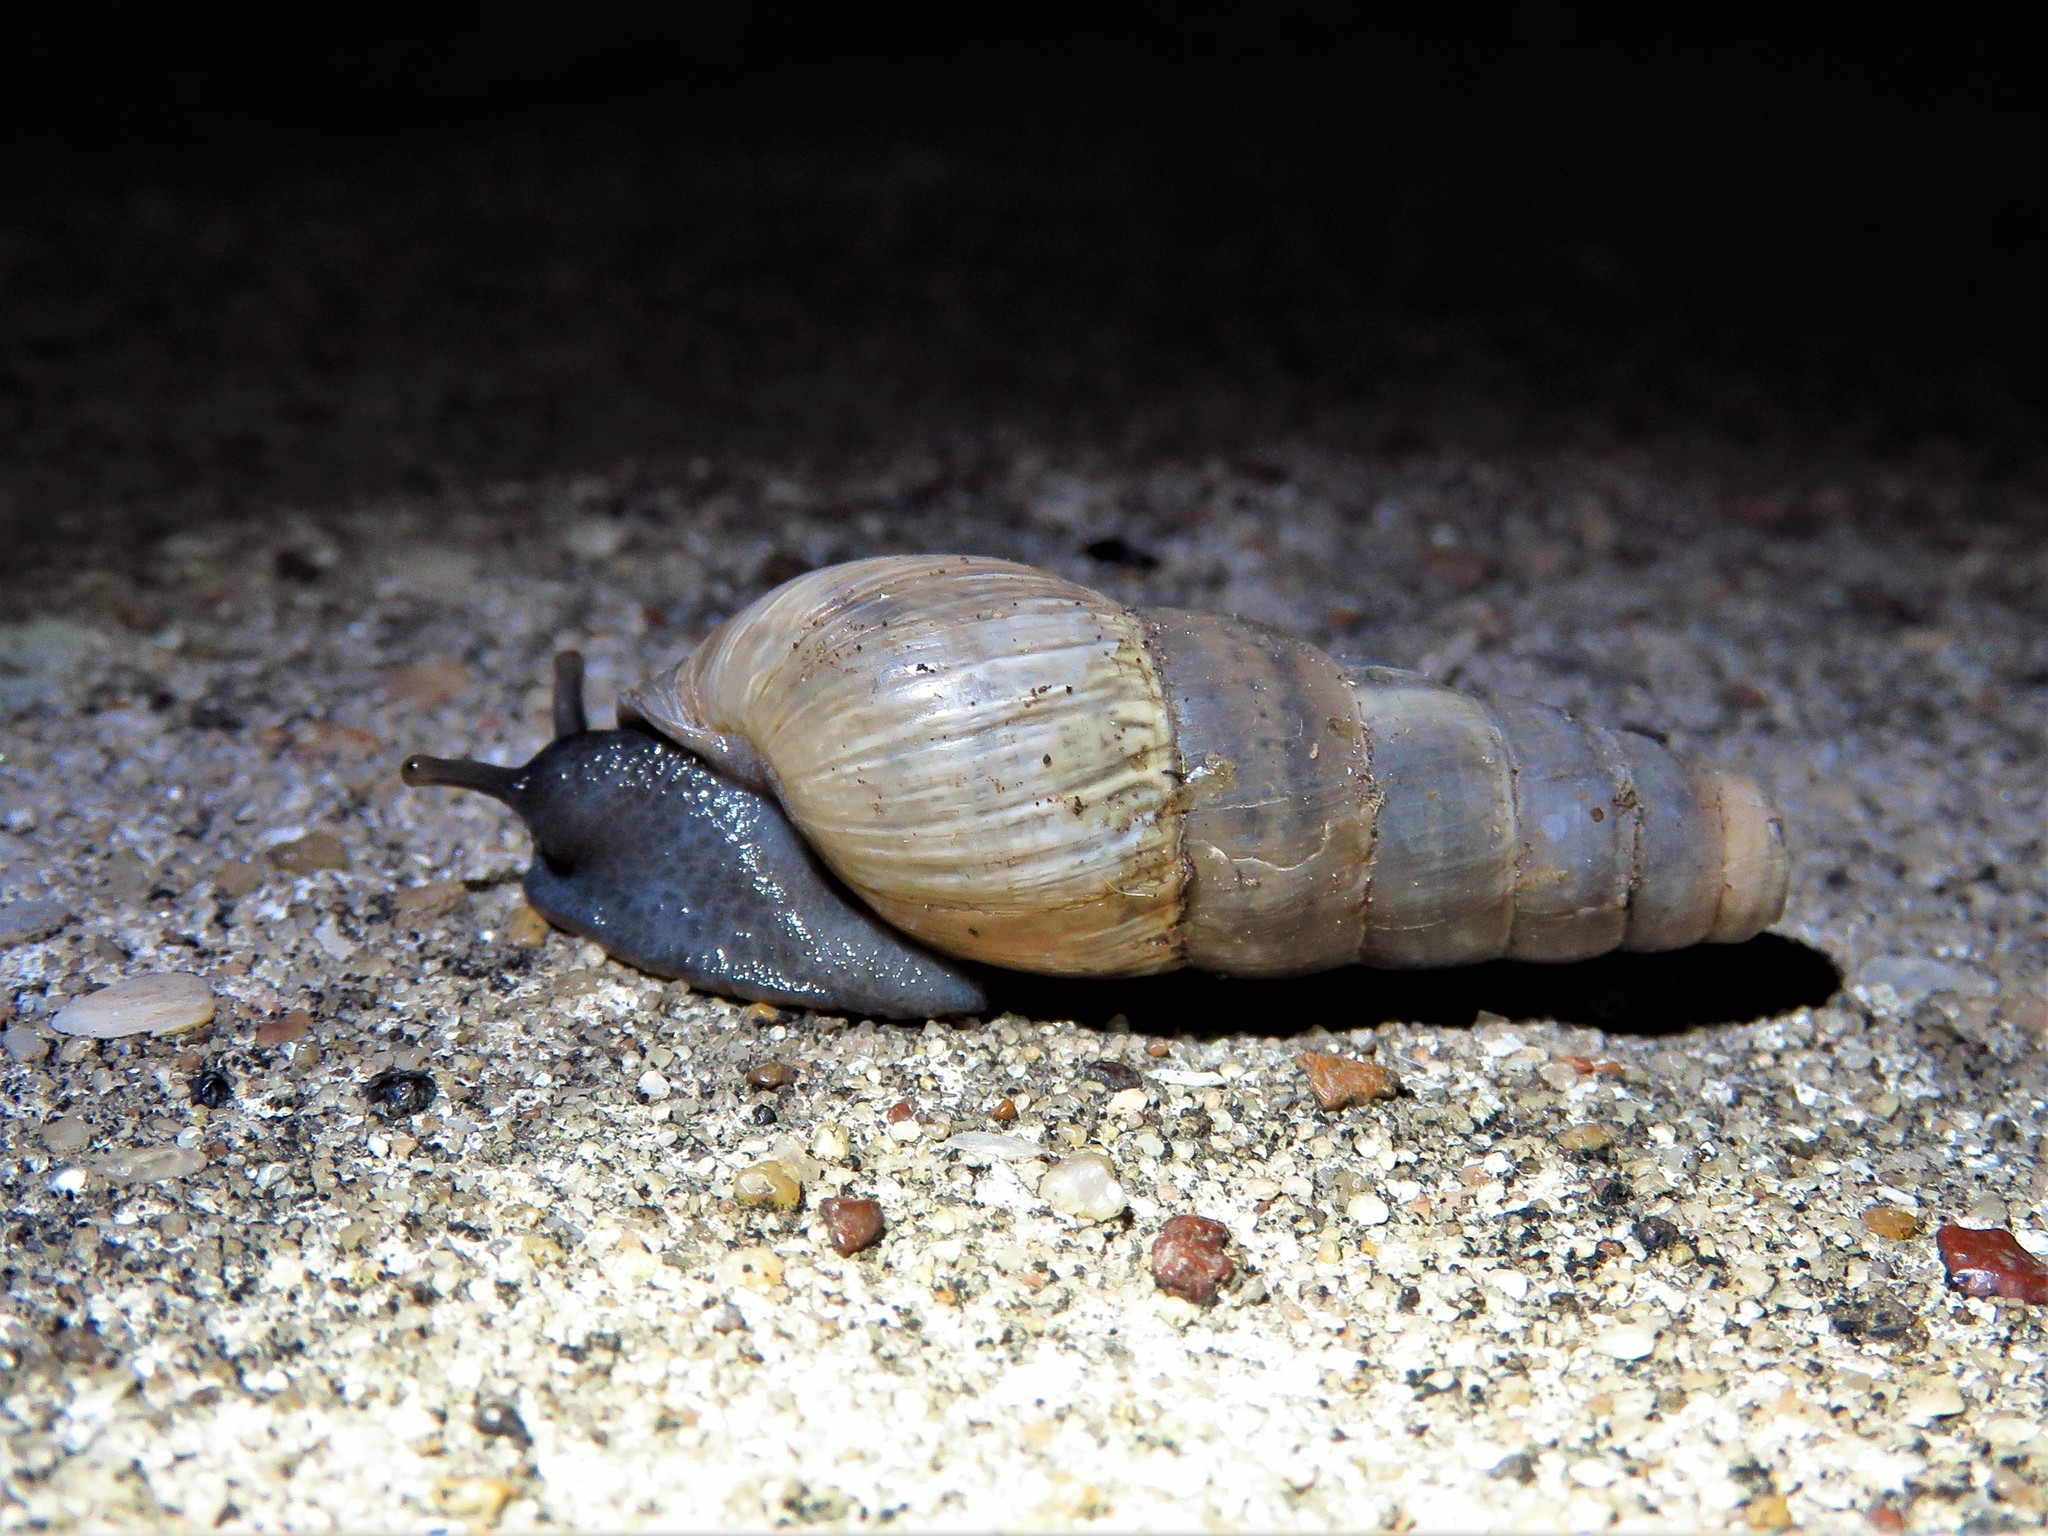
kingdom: Animalia
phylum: Mollusca
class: Gastropoda
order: Stylommatophora
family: Achatinidae
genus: Rumina
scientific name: Rumina decollata
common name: Decollate snail
